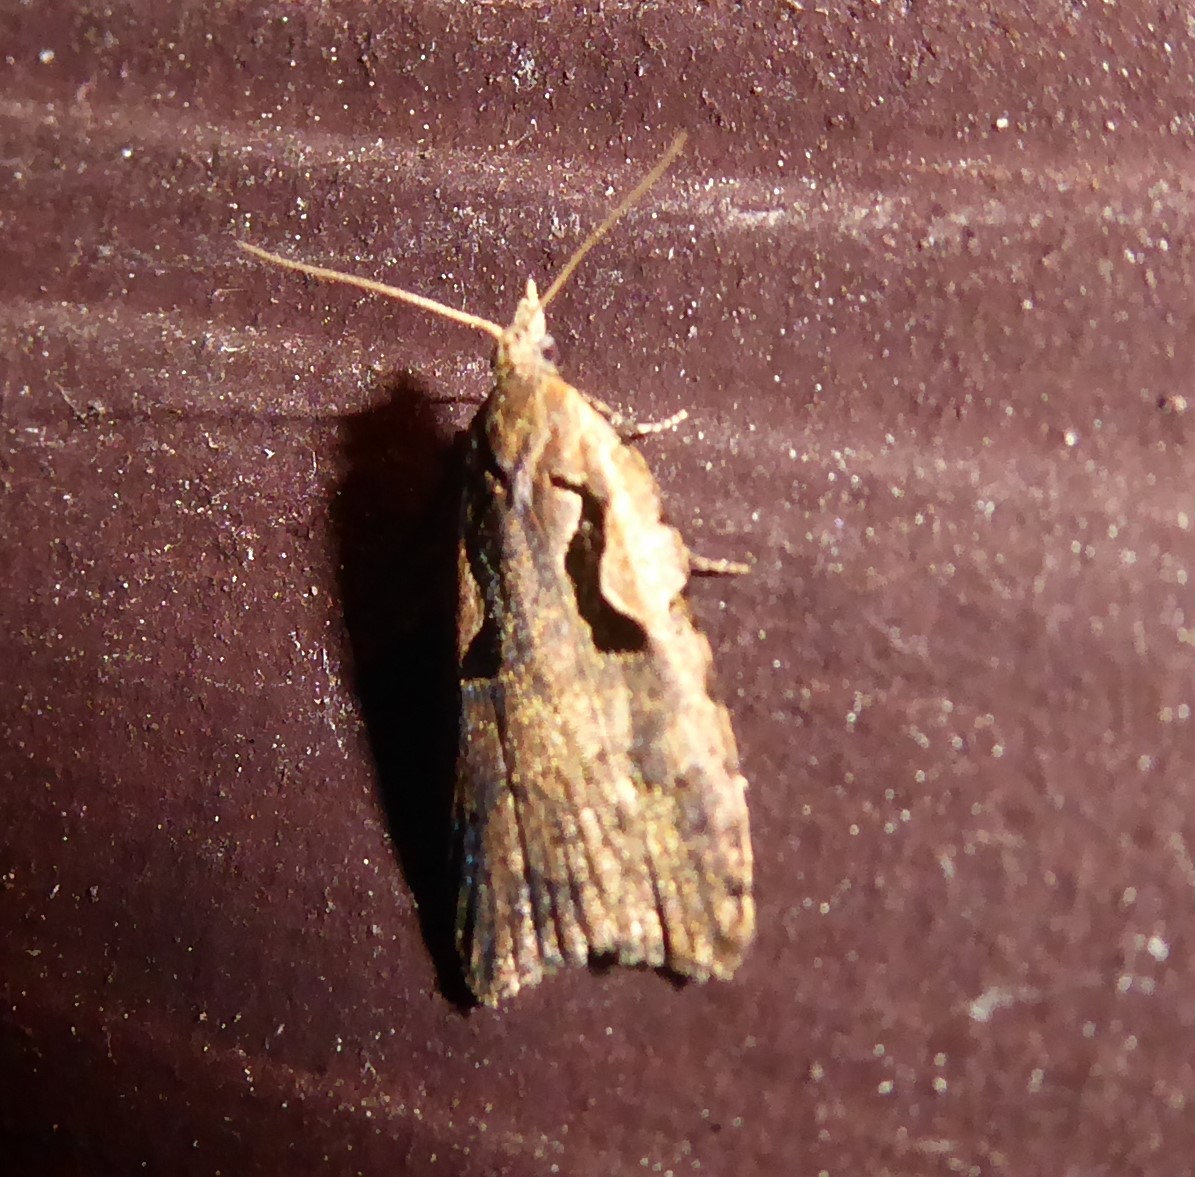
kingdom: Animalia
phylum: Arthropoda
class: Insecta
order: Lepidoptera
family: Tortricidae
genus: Cnephasia
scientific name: Cnephasia jactatana
